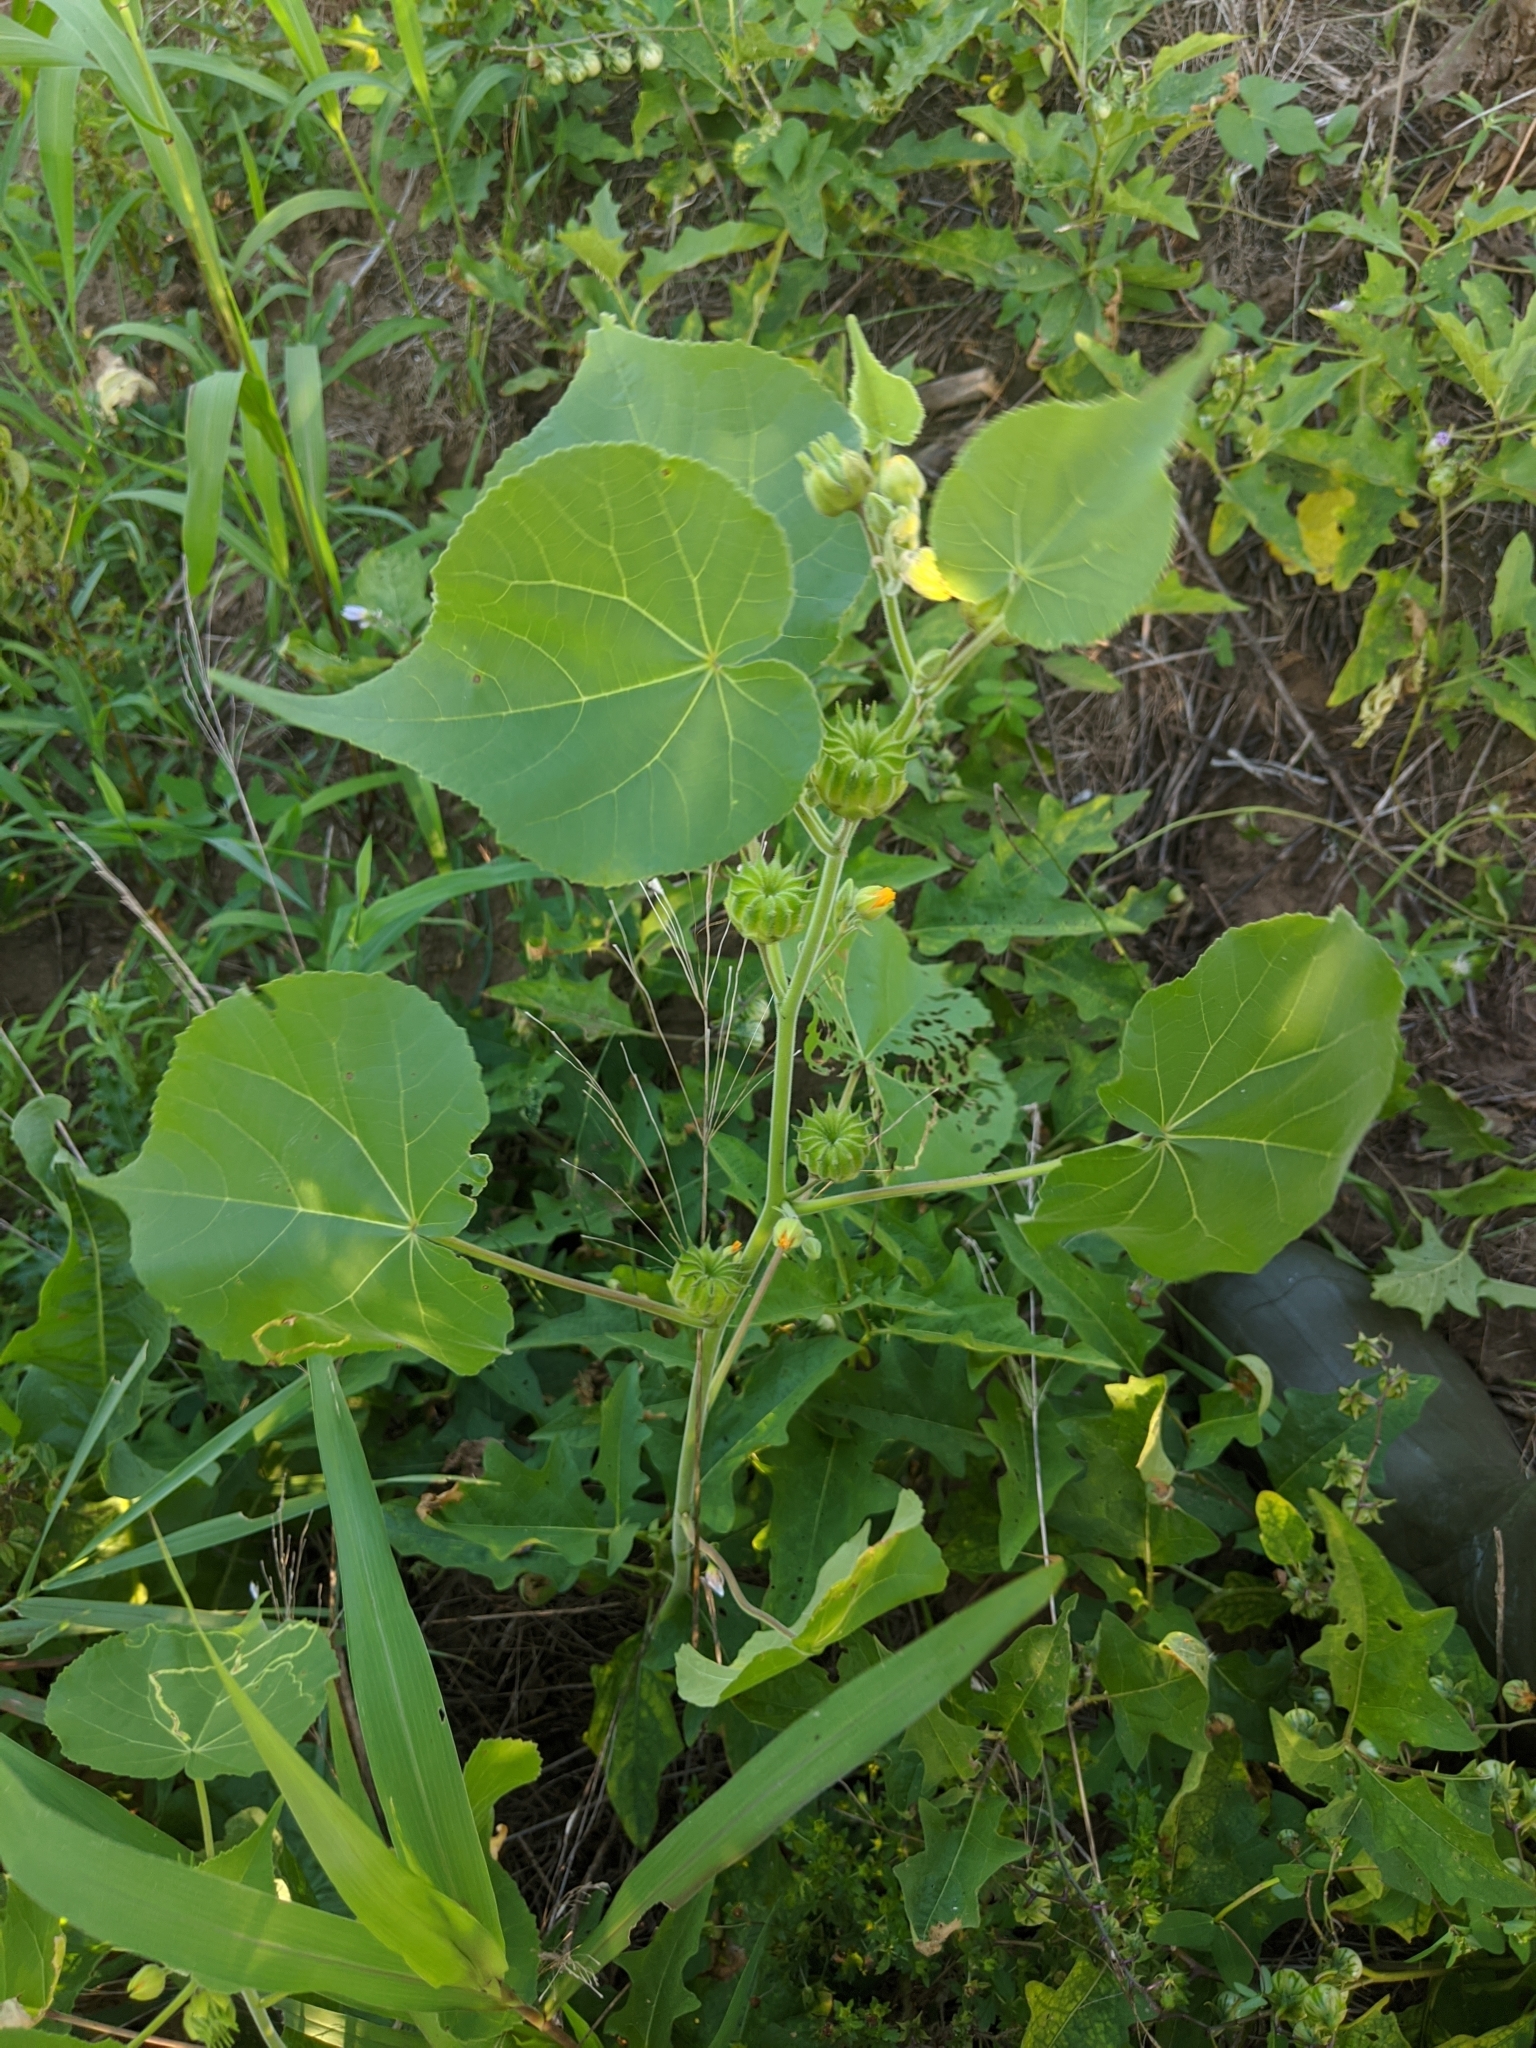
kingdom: Plantae
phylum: Tracheophyta
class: Magnoliopsida
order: Malvales
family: Malvaceae
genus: Abutilon
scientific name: Abutilon theophrasti
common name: Velvetleaf
